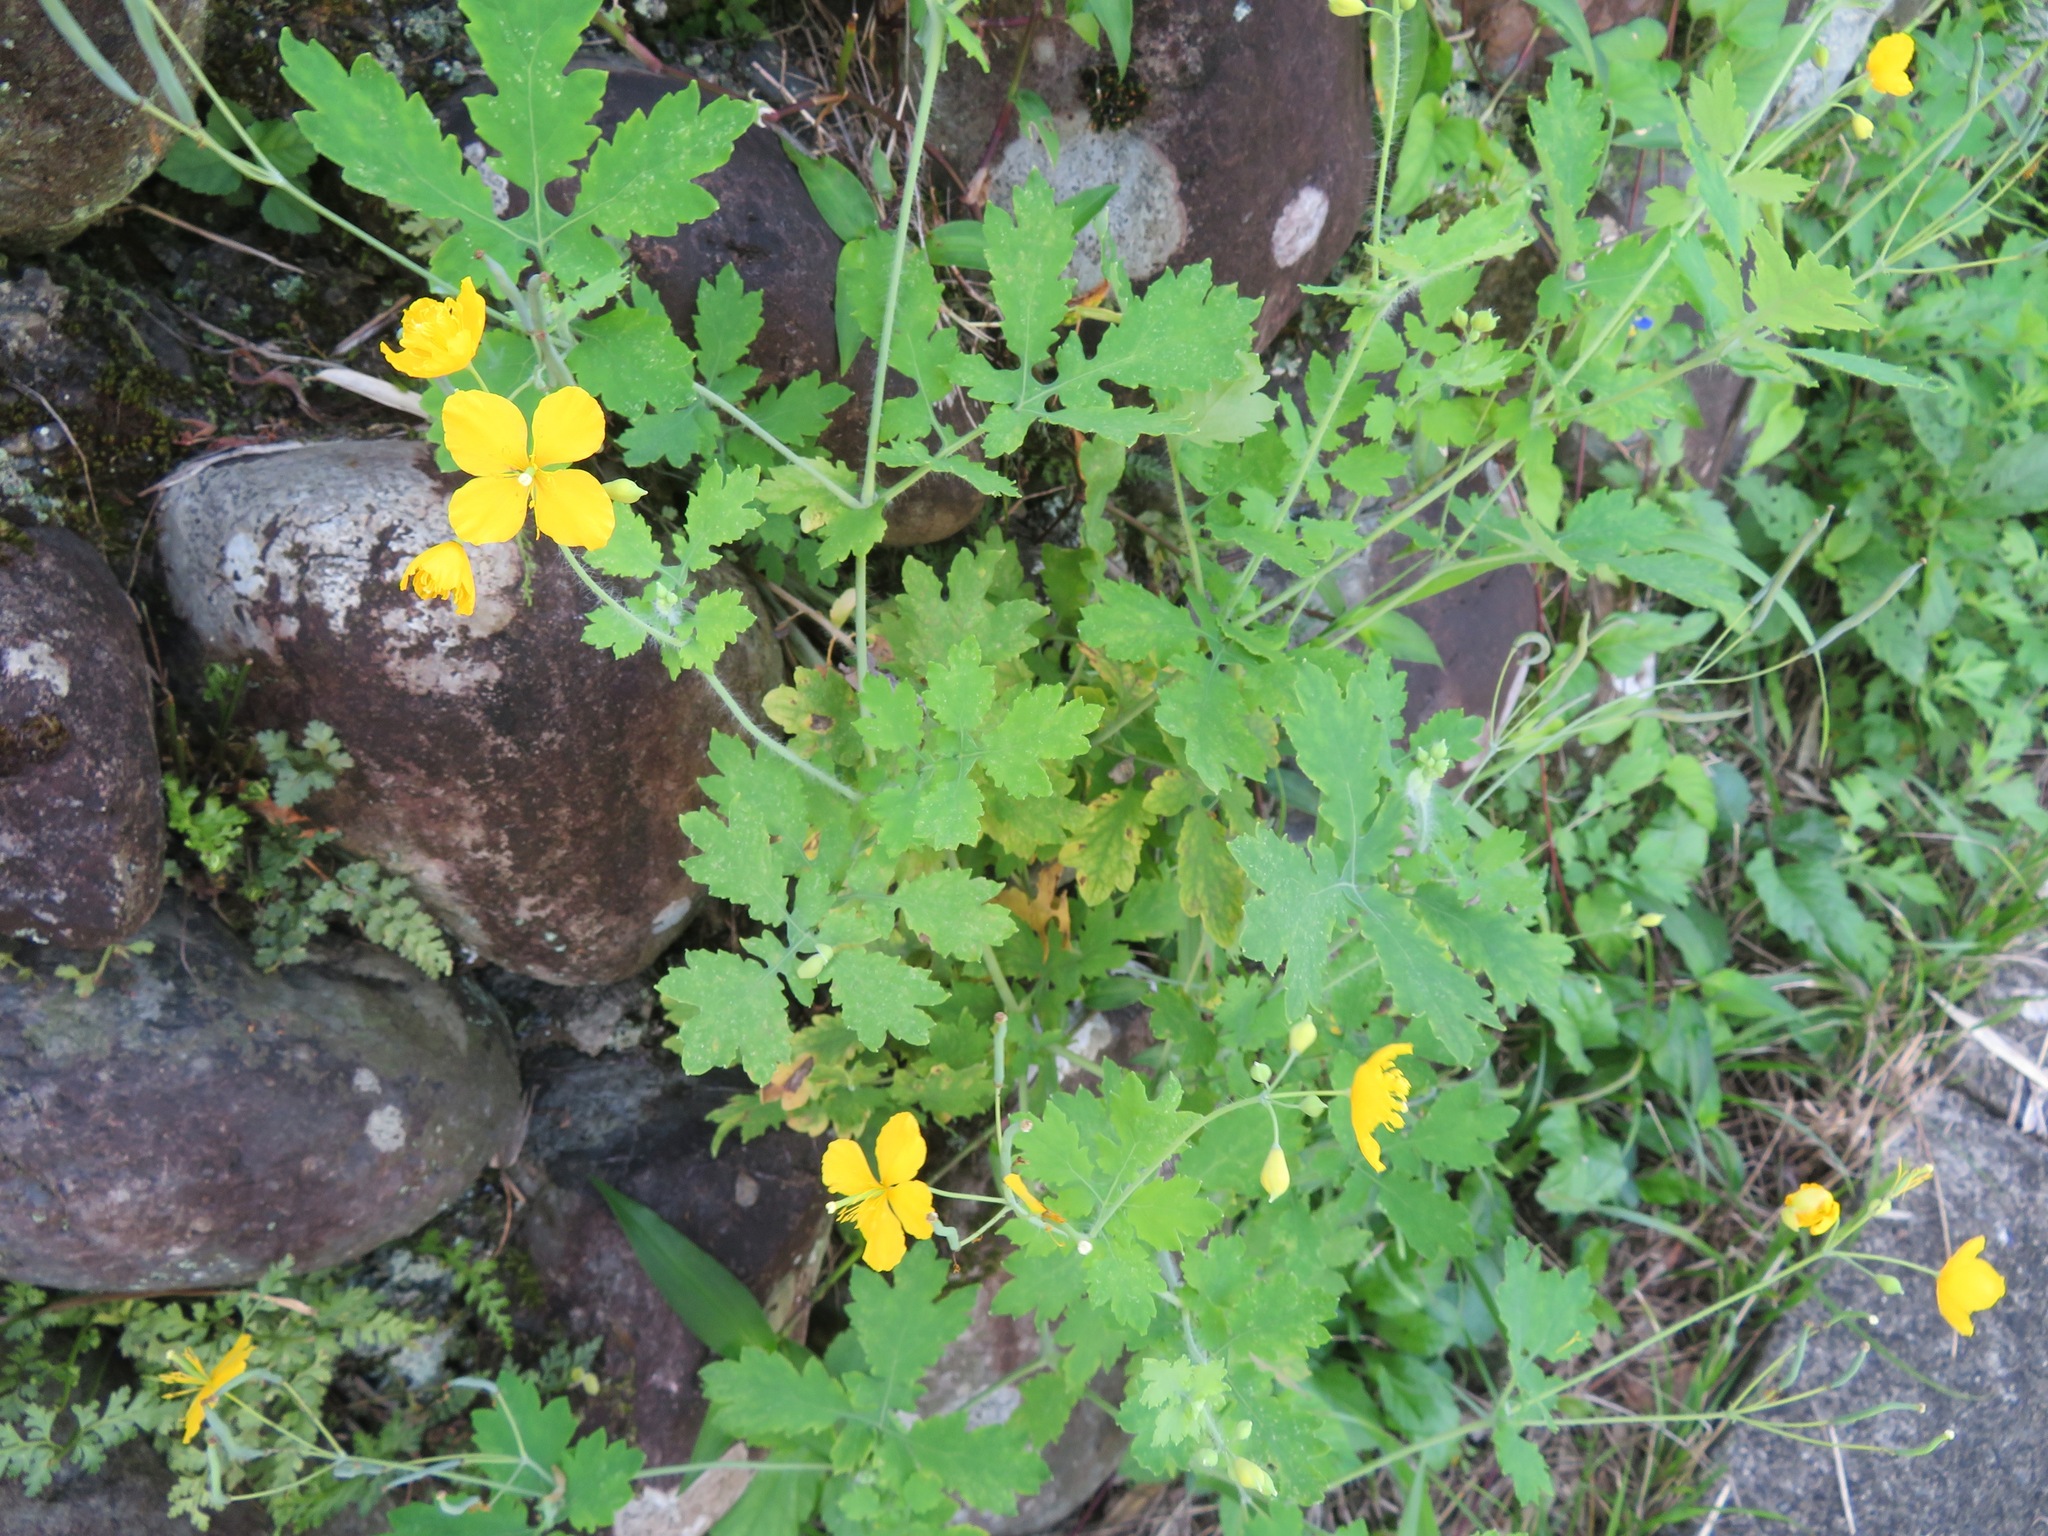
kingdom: Plantae
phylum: Tracheophyta
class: Magnoliopsida
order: Ranunculales
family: Papaveraceae
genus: Chelidonium
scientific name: Chelidonium majus
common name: Greater celandine
